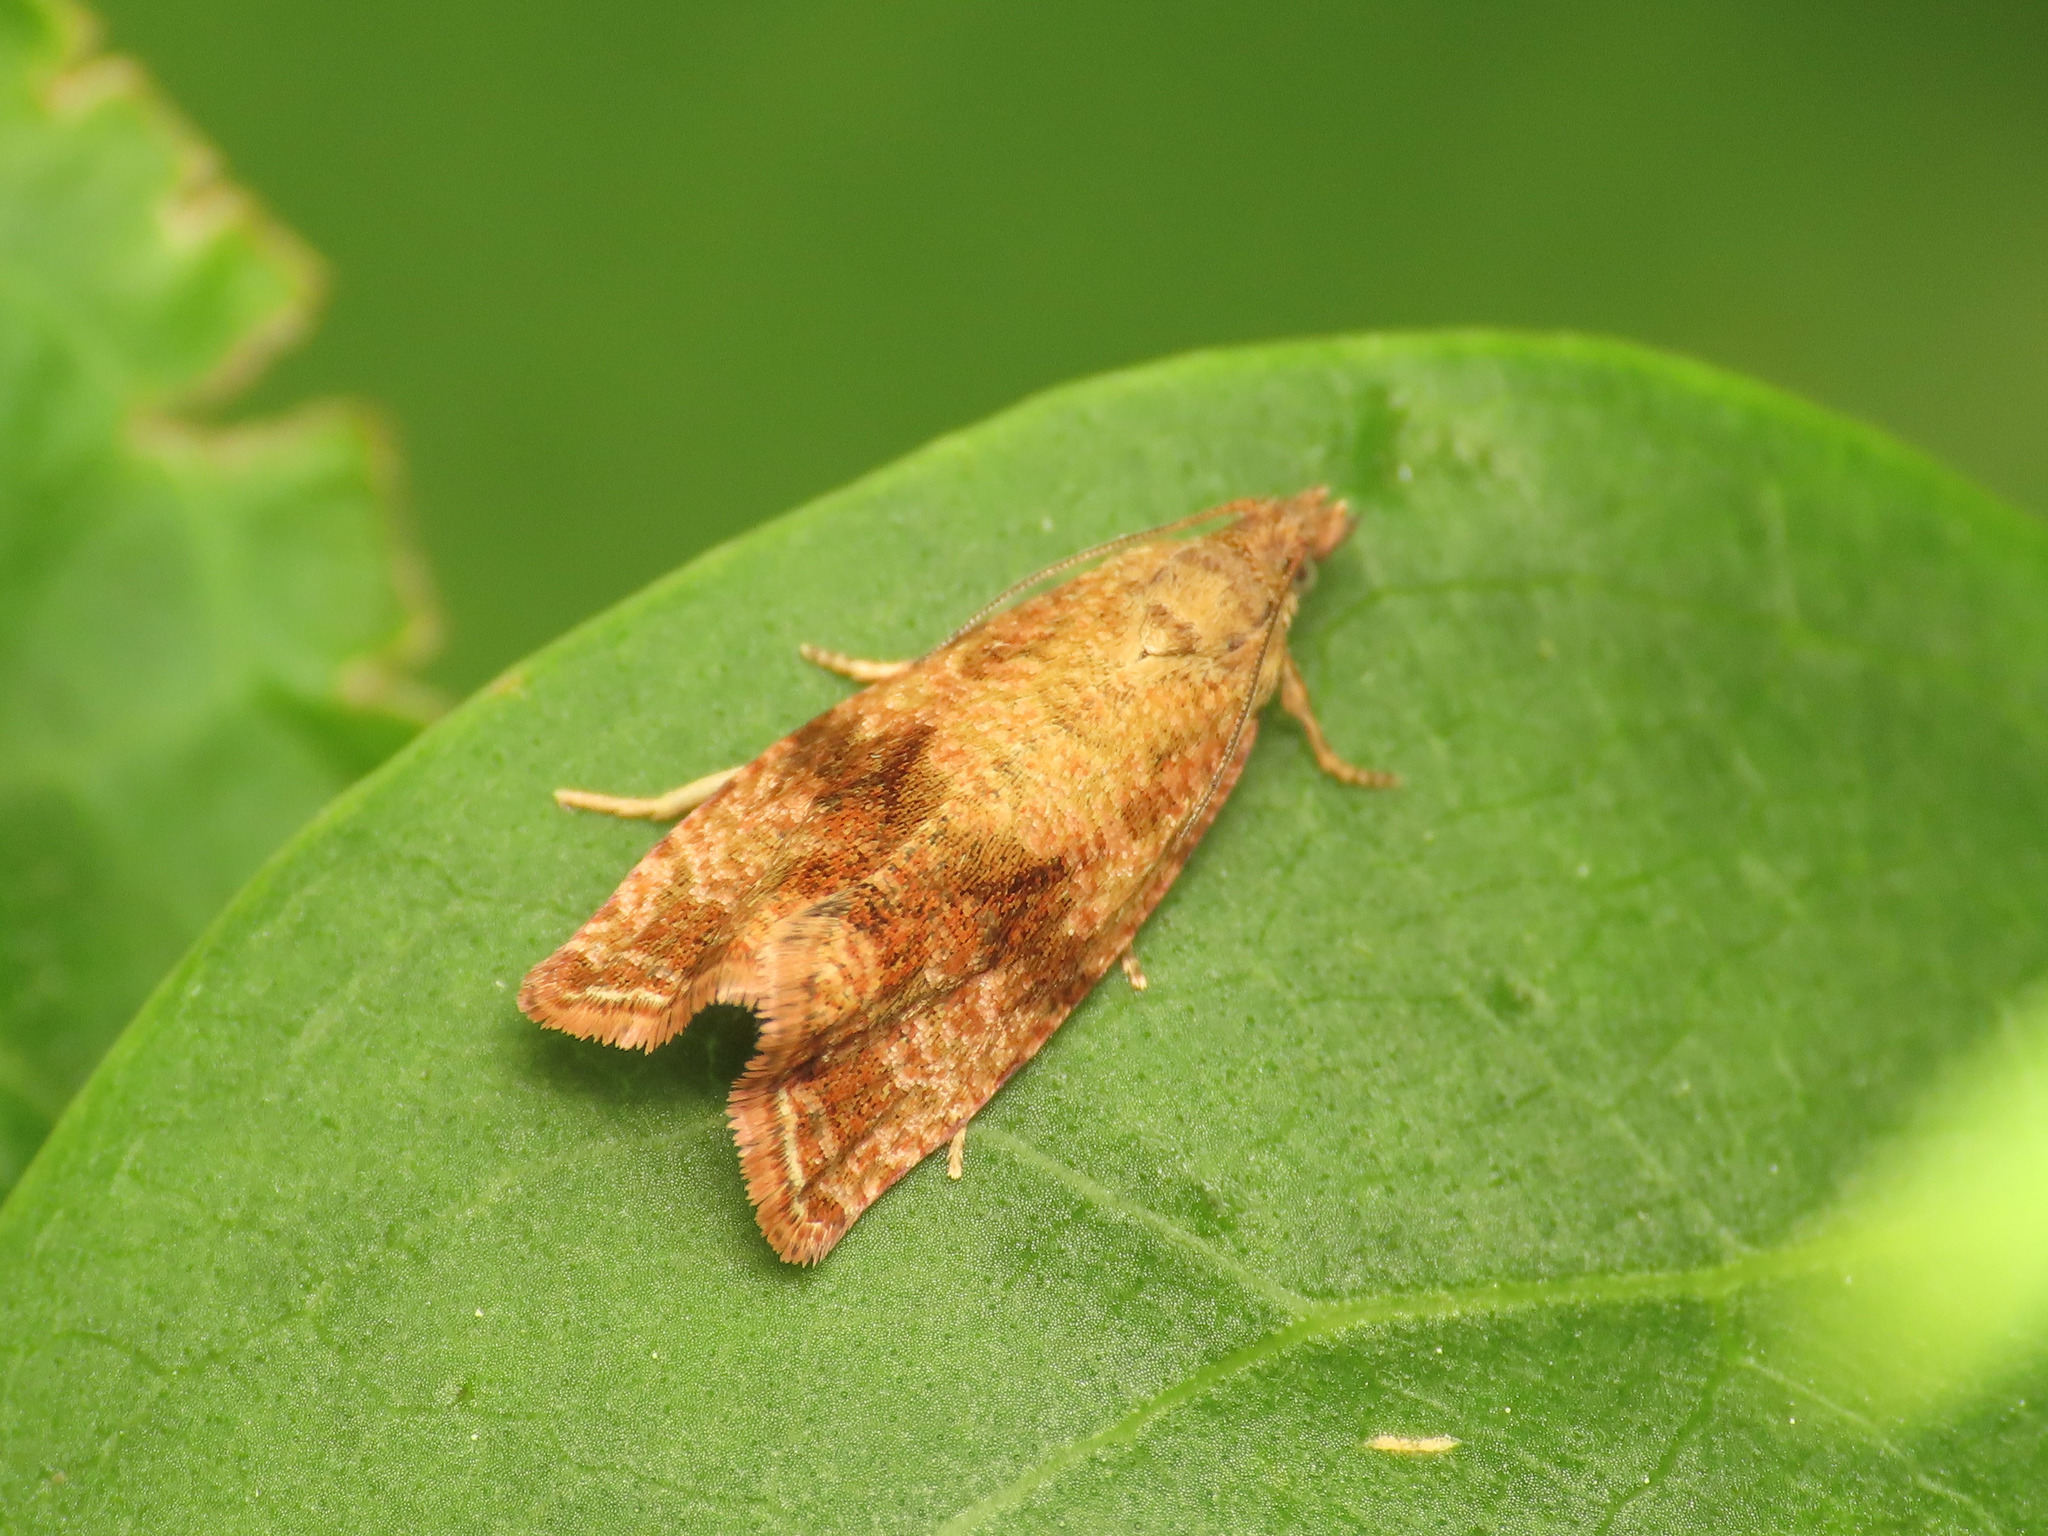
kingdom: Animalia
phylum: Arthropoda
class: Insecta
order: Lepidoptera
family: Tortricidae
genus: Celypha
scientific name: Celypha striana
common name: Barred marble
